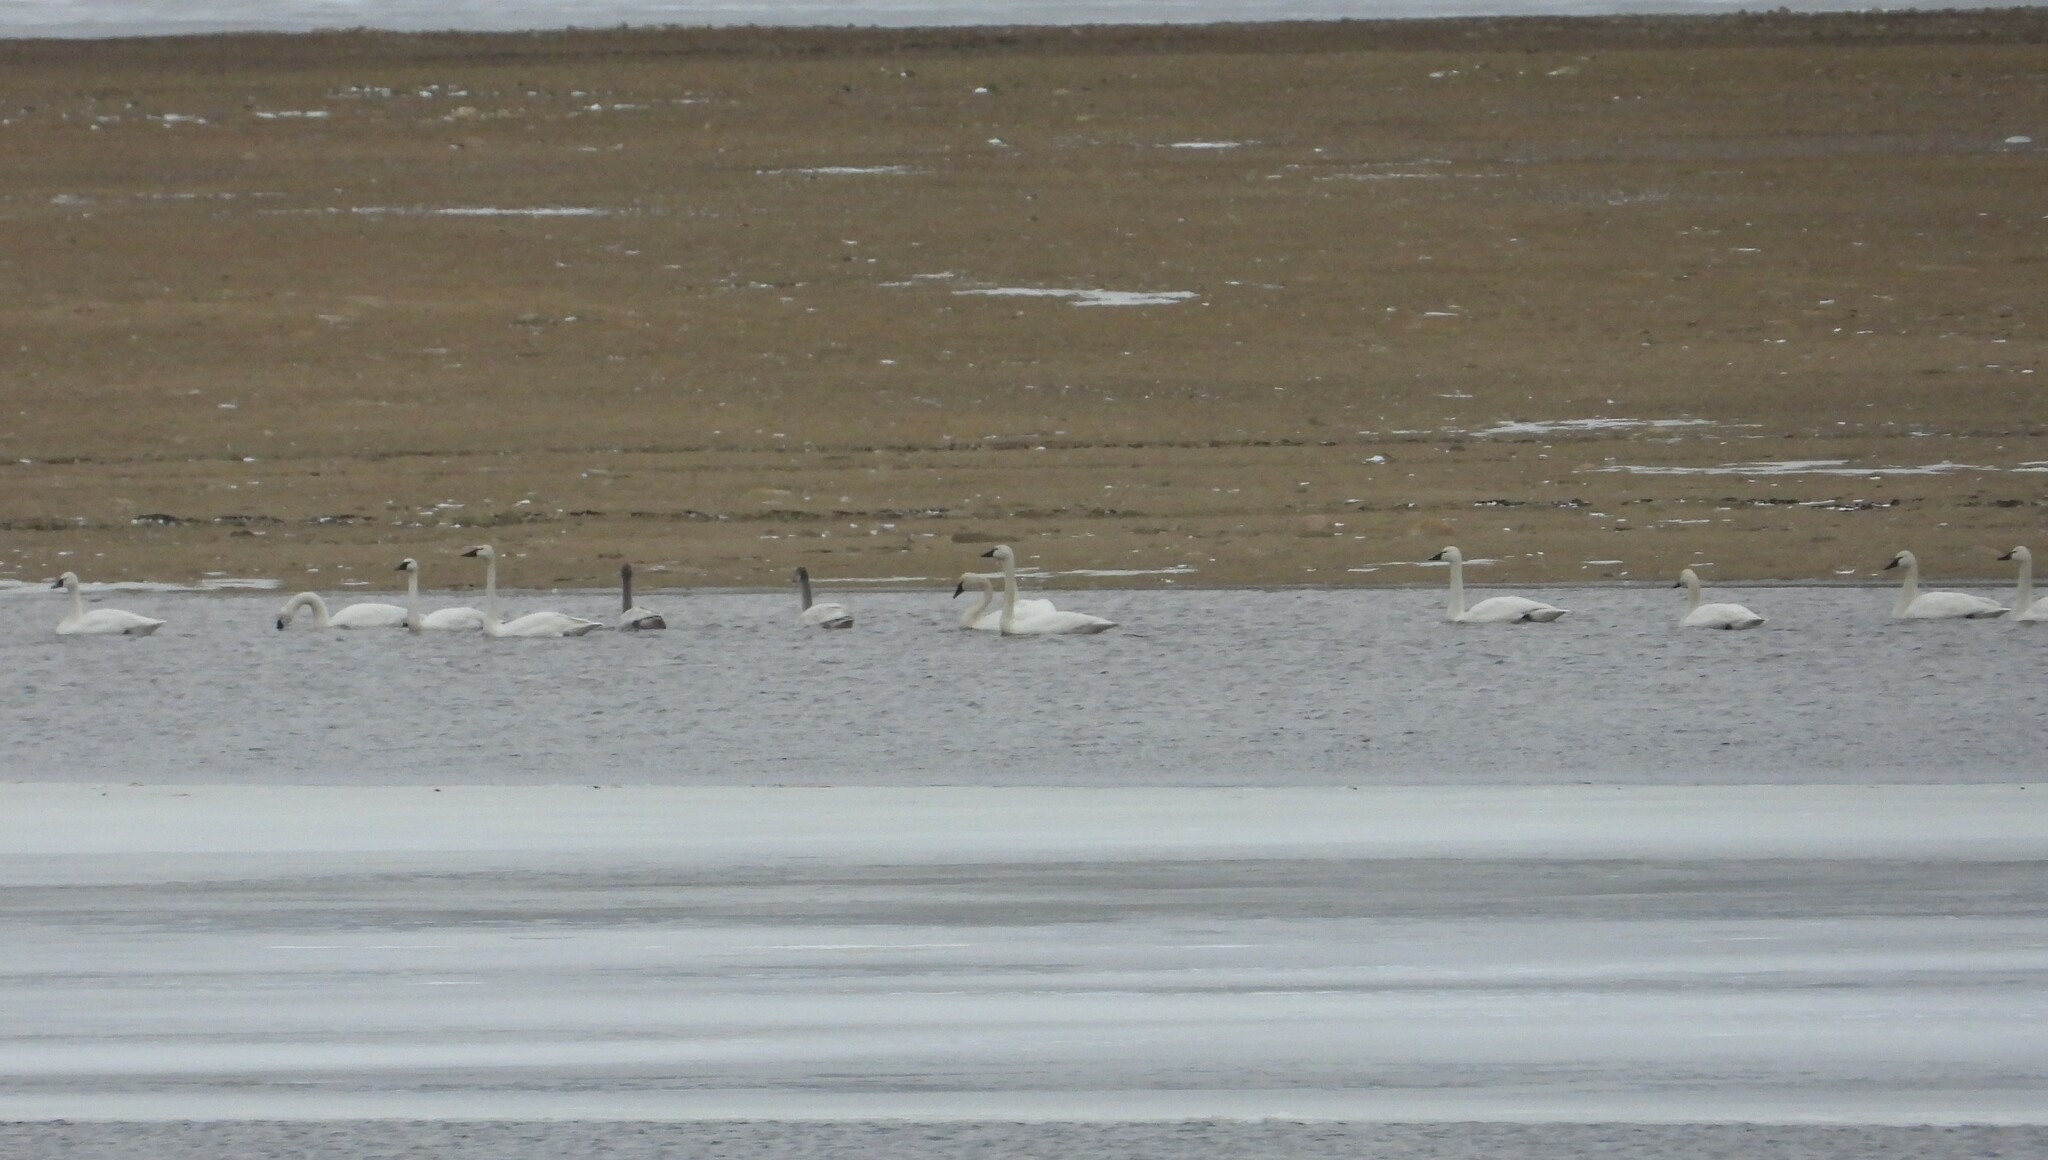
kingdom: Animalia
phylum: Chordata
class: Aves
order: Anseriformes
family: Anatidae
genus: Cygnus
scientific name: Cygnus columbianus
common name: Tundra swan
